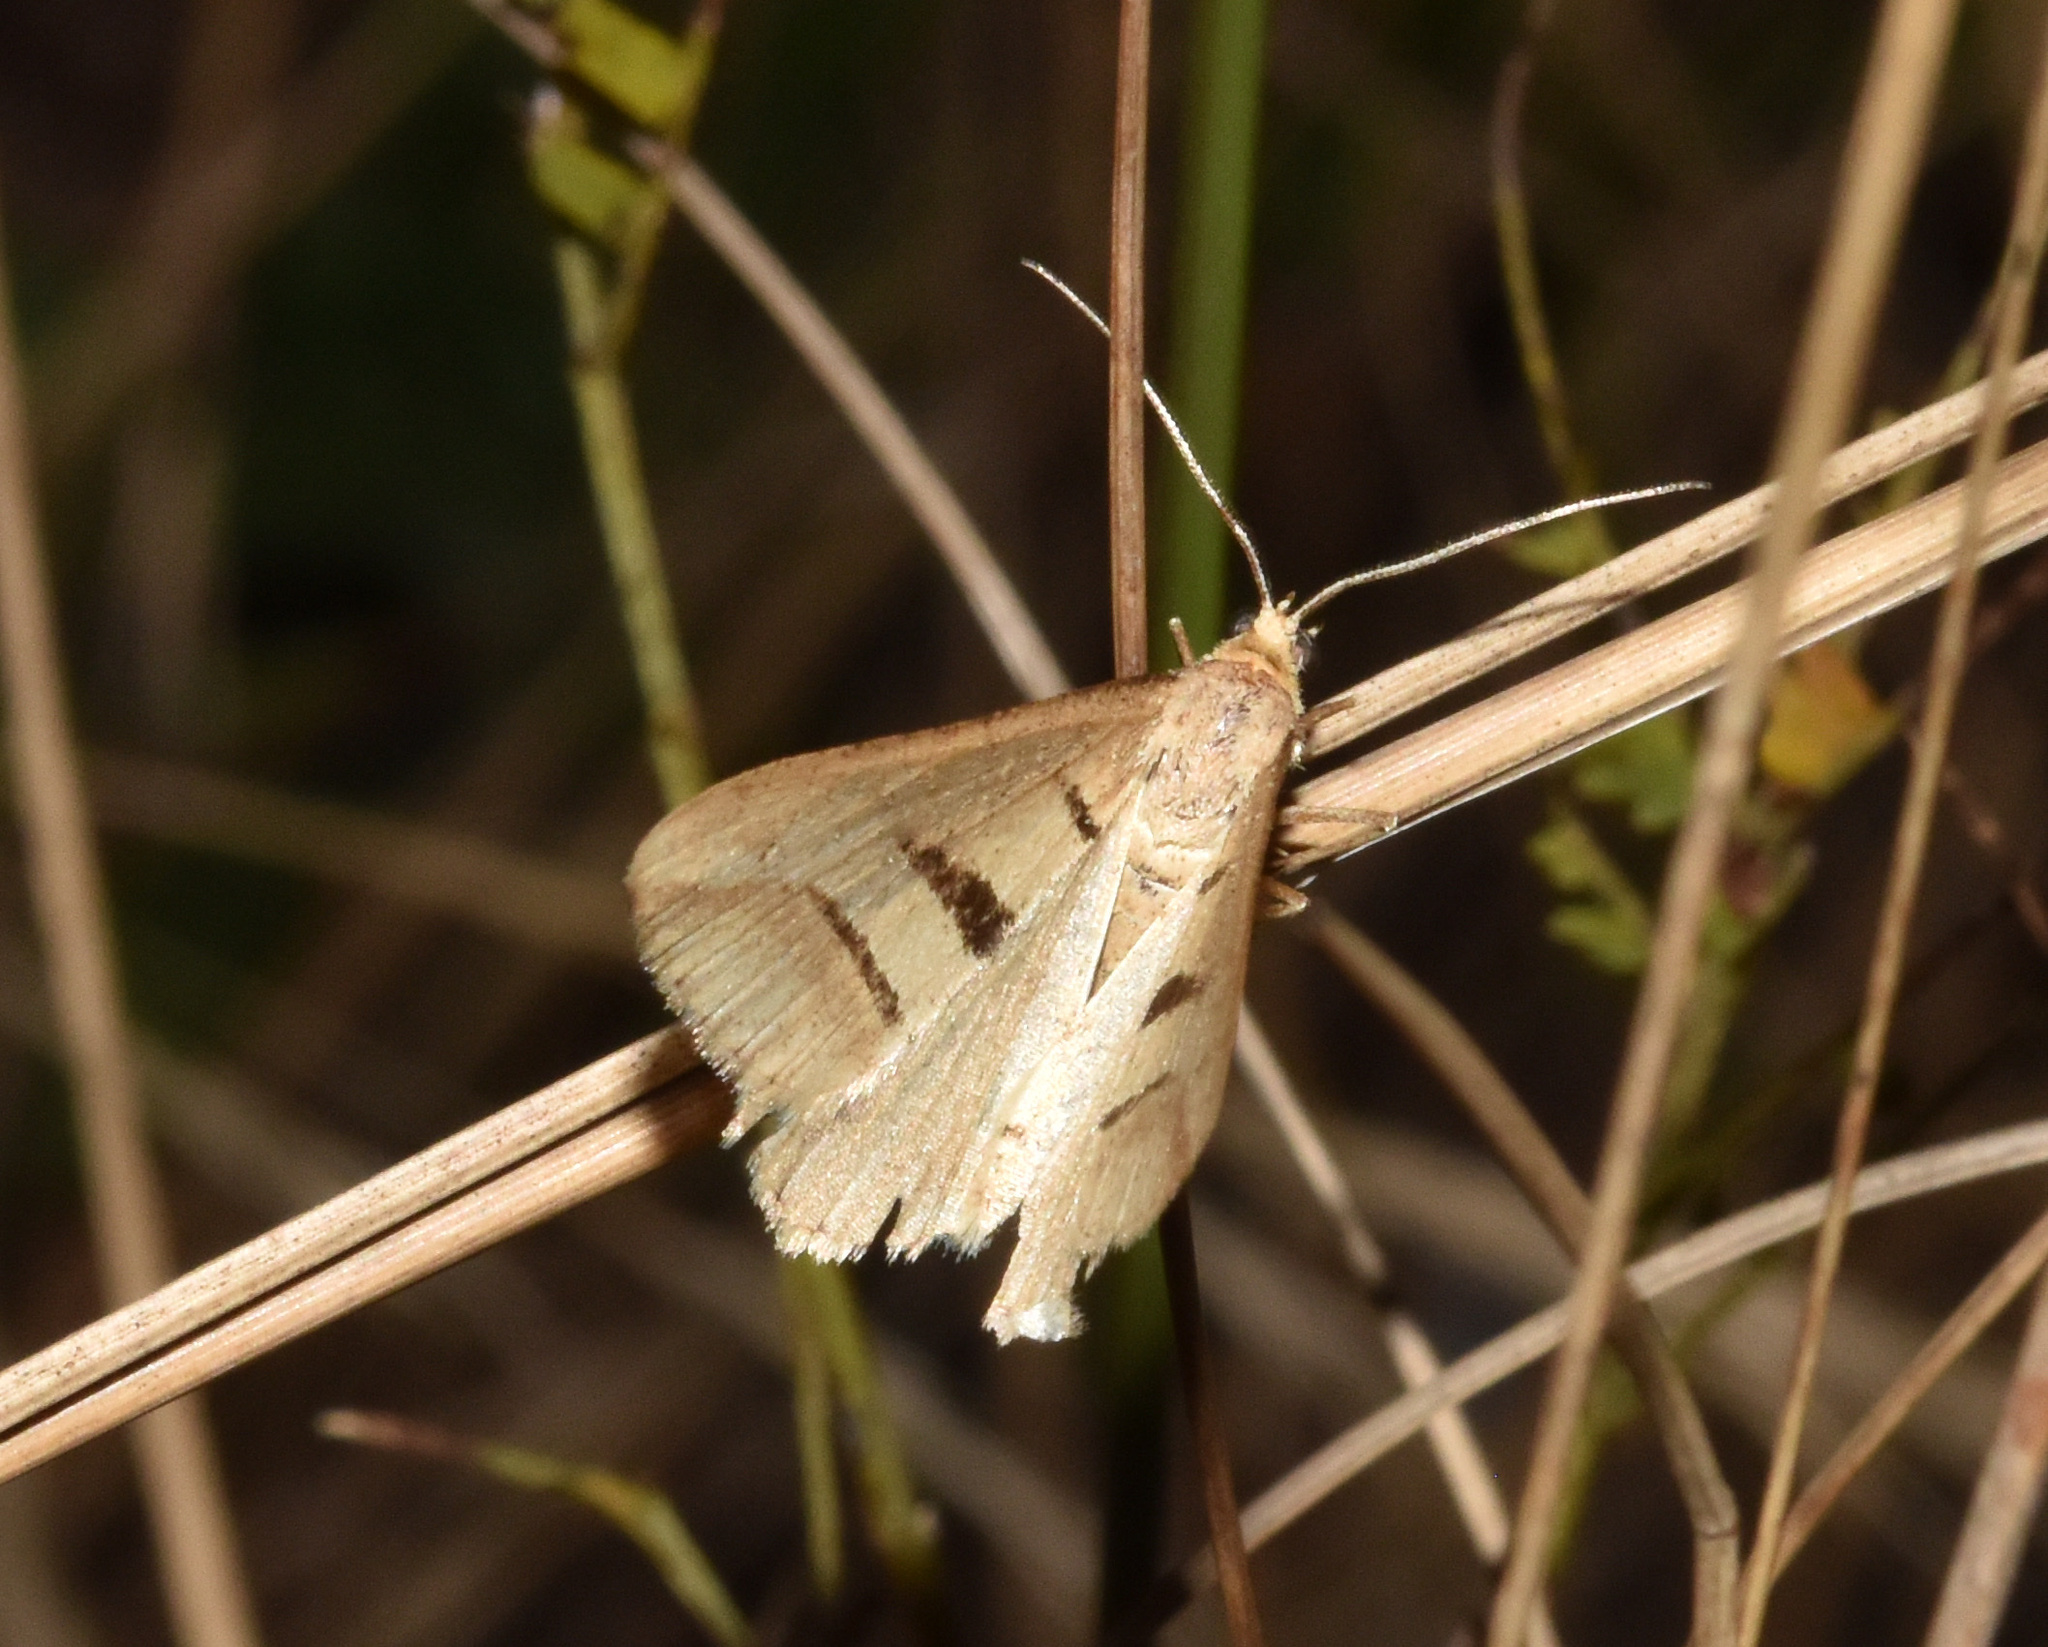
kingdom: Animalia
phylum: Arthropoda
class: Insecta
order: Lepidoptera
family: Geometridae
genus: Chiasmia
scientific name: Chiasmia subcurvaria
